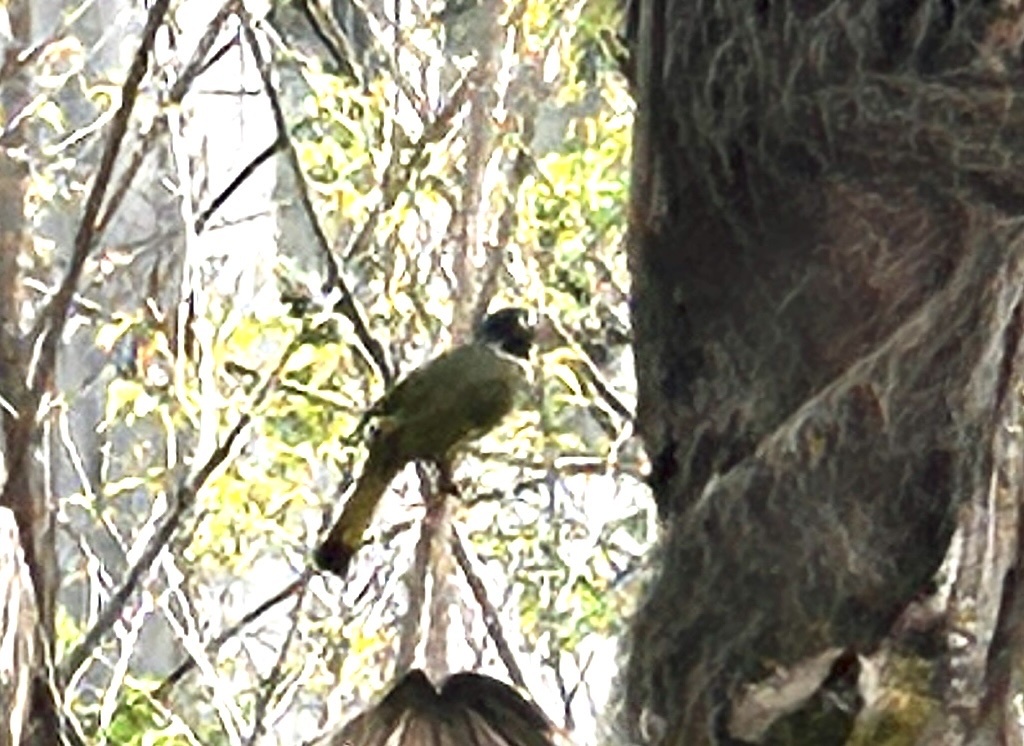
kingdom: Animalia
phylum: Chordata
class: Aves
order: Passeriformes
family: Pycnonotidae
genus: Spizixos
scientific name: Spizixos semitorques
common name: Collared finchbill
